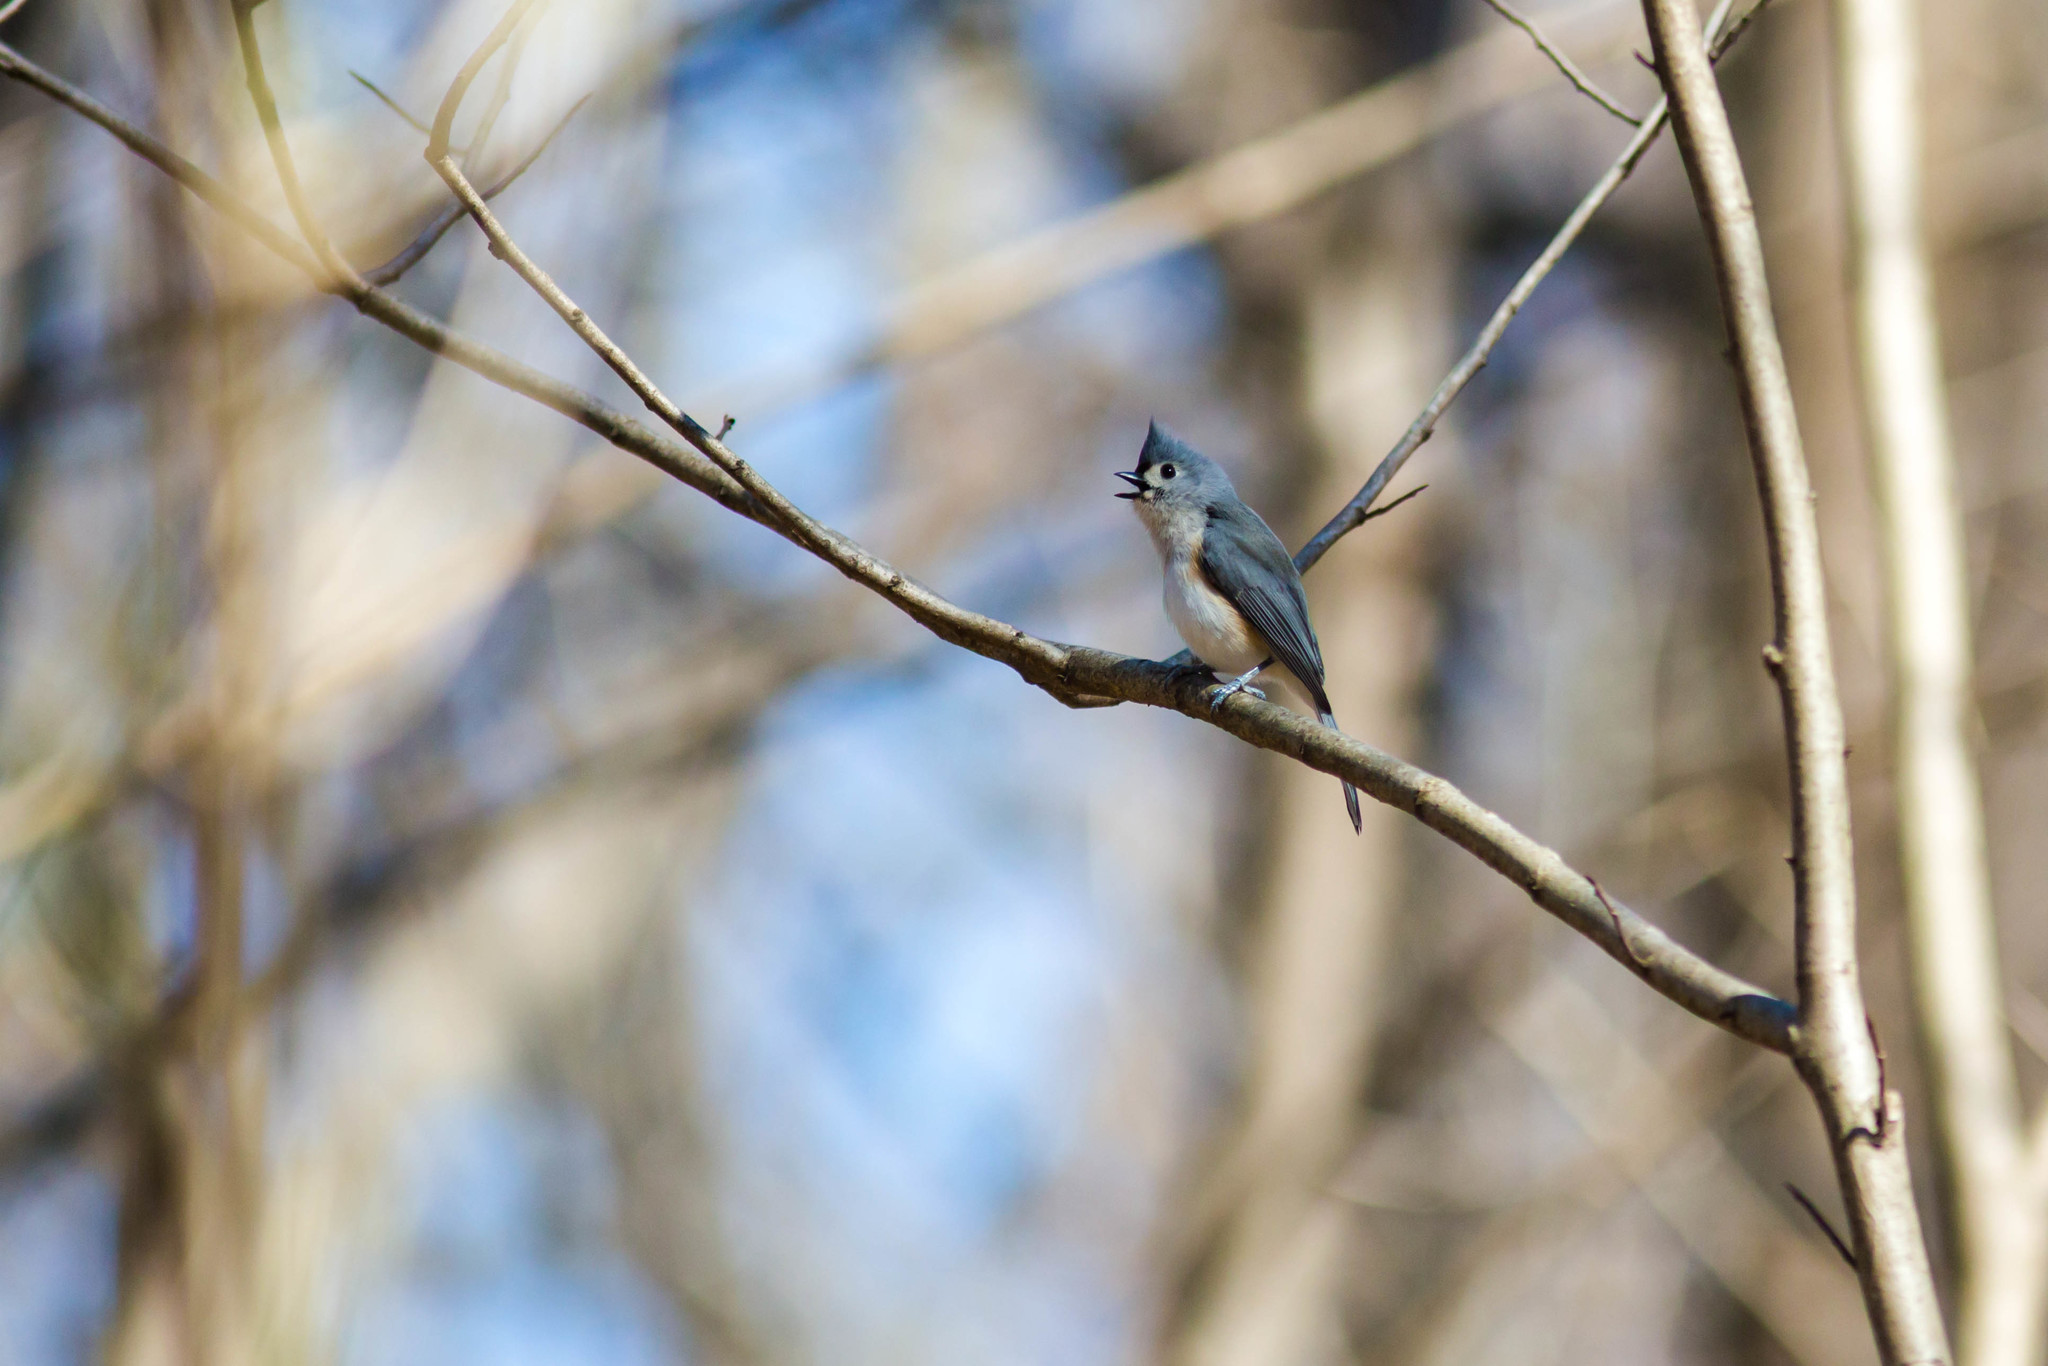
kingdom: Animalia
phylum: Chordata
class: Aves
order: Passeriformes
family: Paridae
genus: Baeolophus
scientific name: Baeolophus bicolor
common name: Tufted titmouse
